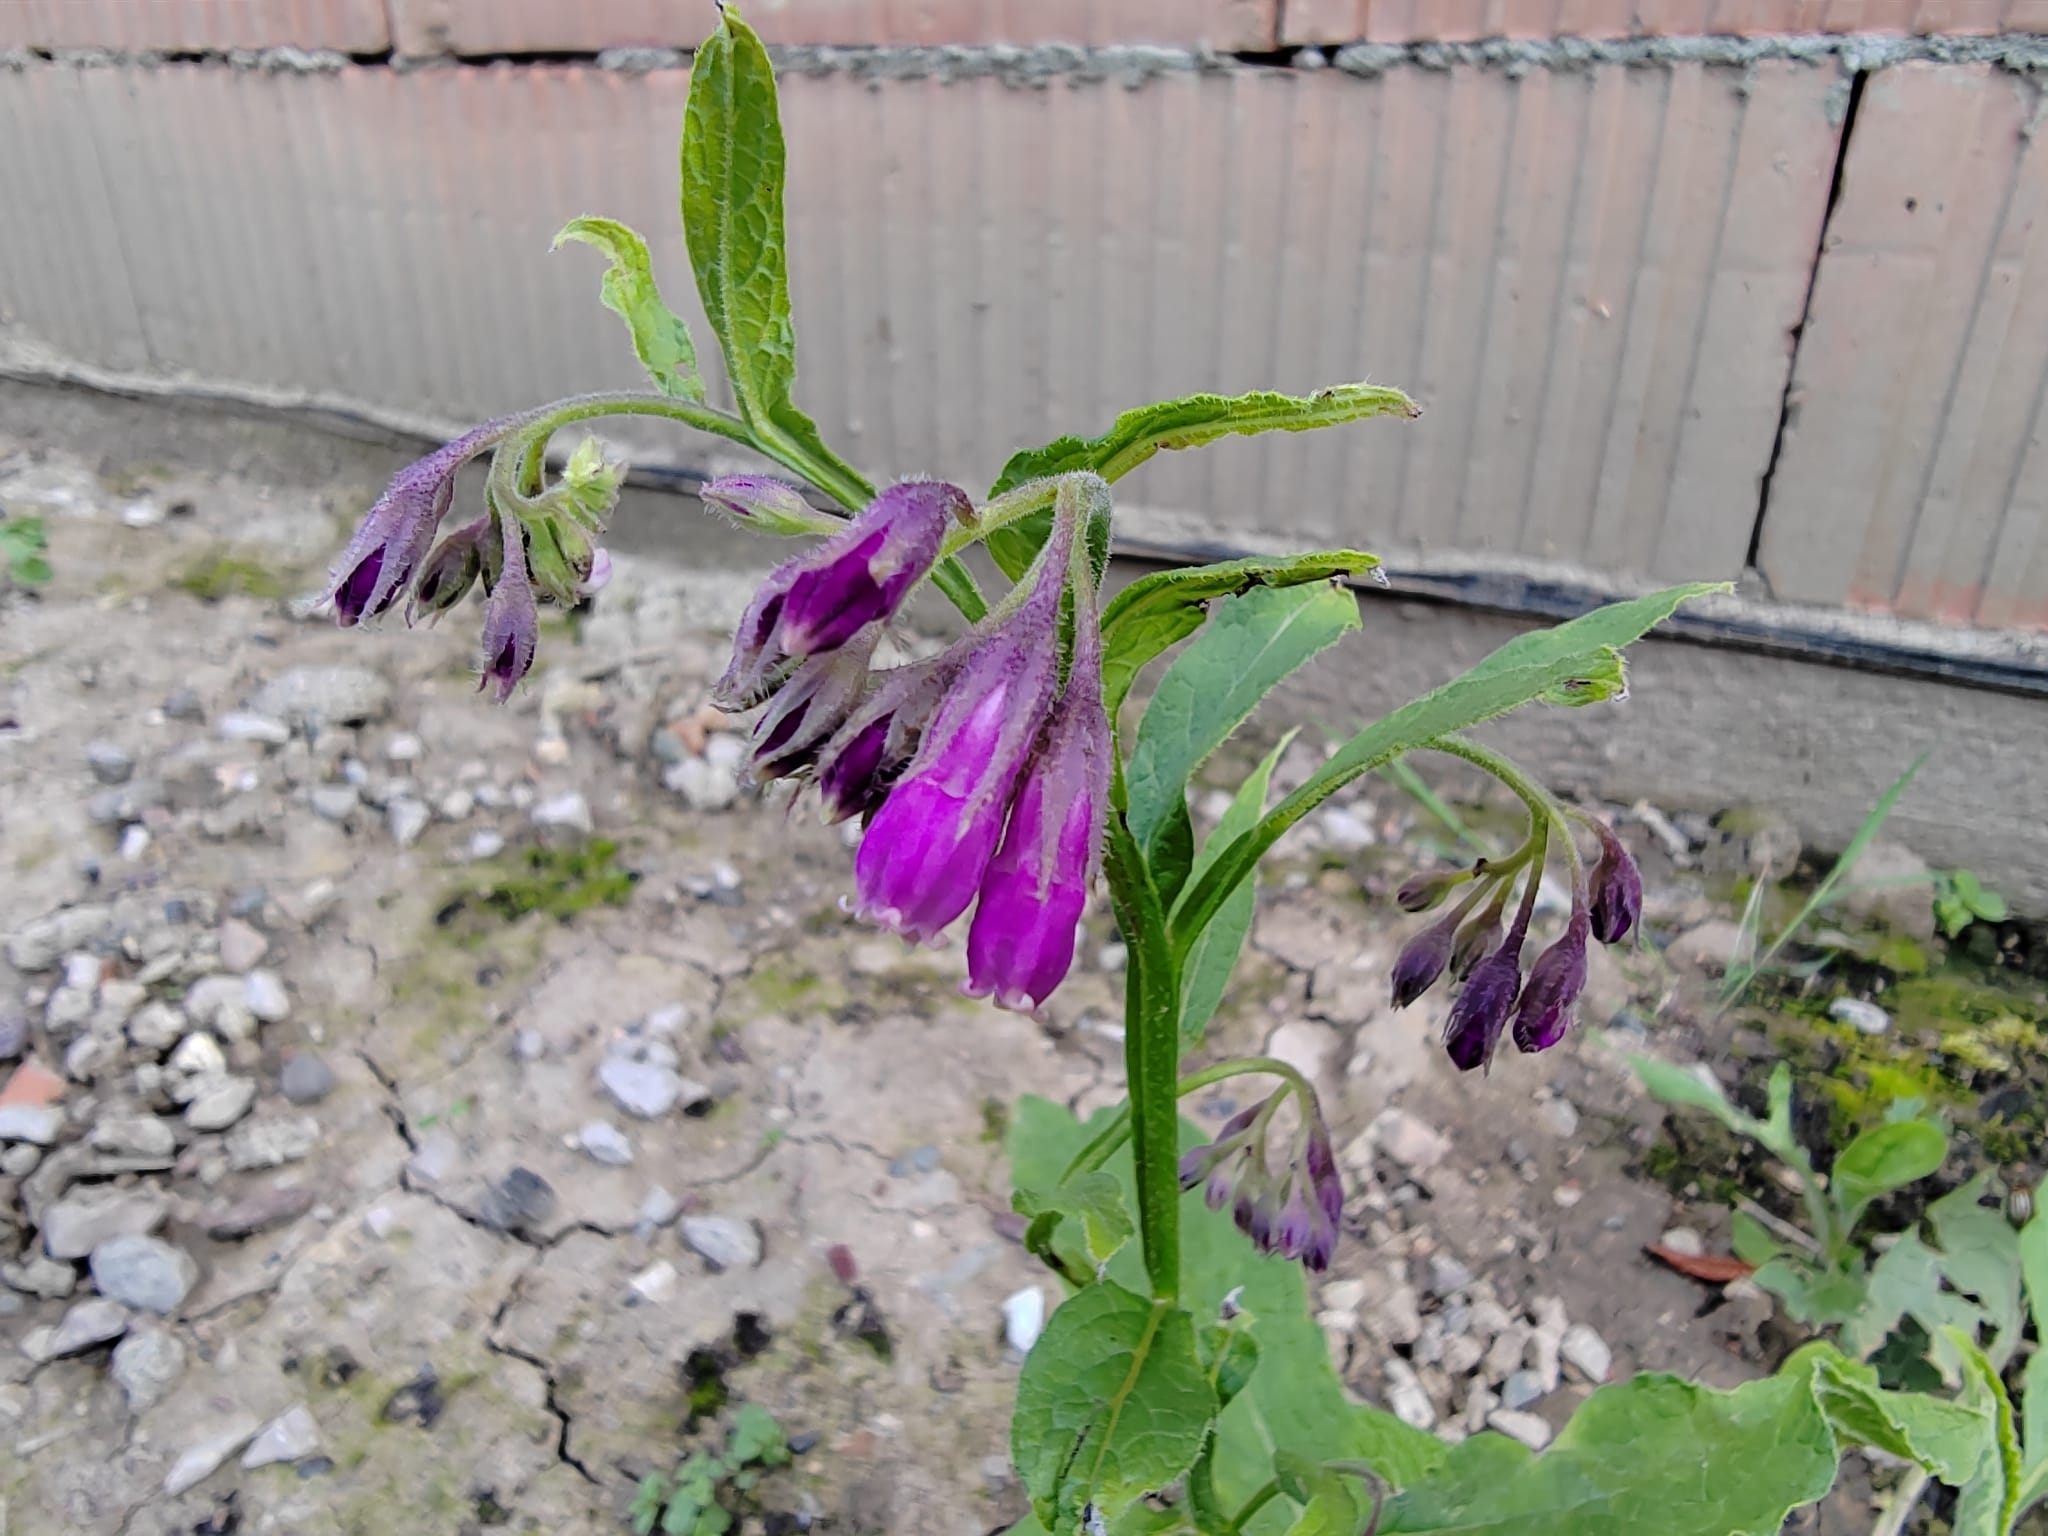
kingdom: Plantae
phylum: Tracheophyta
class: Magnoliopsida
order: Boraginales
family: Boraginaceae
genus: Symphytum
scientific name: Symphytum officinale
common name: Common comfrey
